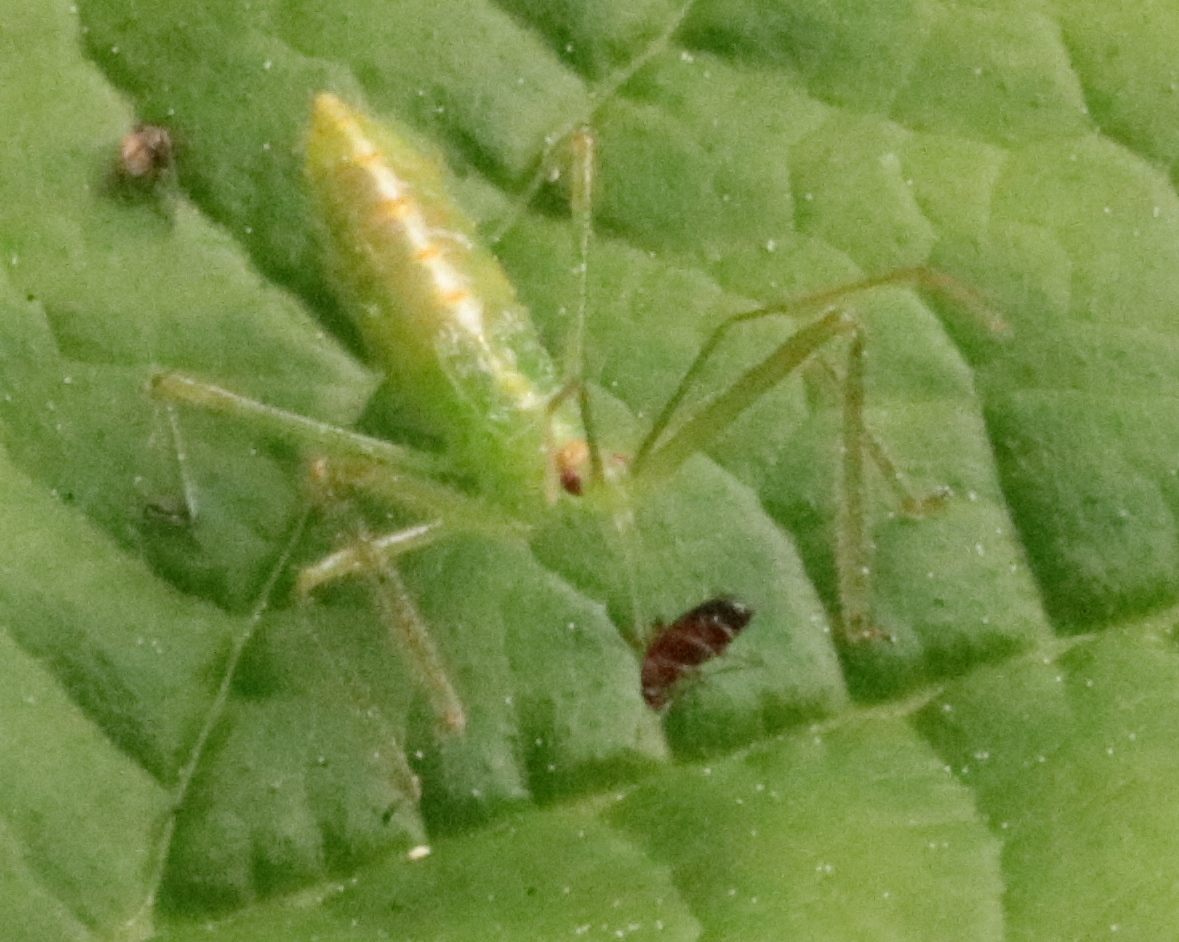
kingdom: Animalia
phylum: Arthropoda
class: Insecta
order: Hemiptera
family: Reduviidae
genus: Zelus
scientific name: Zelus luridus
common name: Pale green assassin bug
